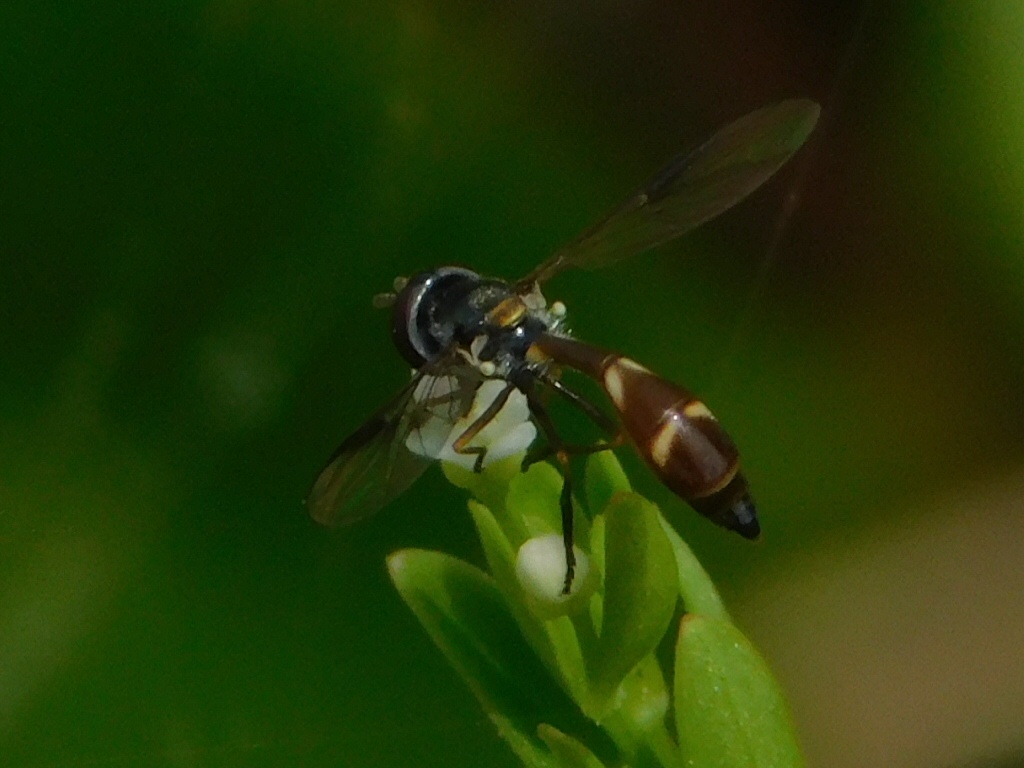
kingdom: Animalia
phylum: Arthropoda
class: Insecta
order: Diptera
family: Syrphidae
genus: Dioprosopa
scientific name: Dioprosopa clavatus
